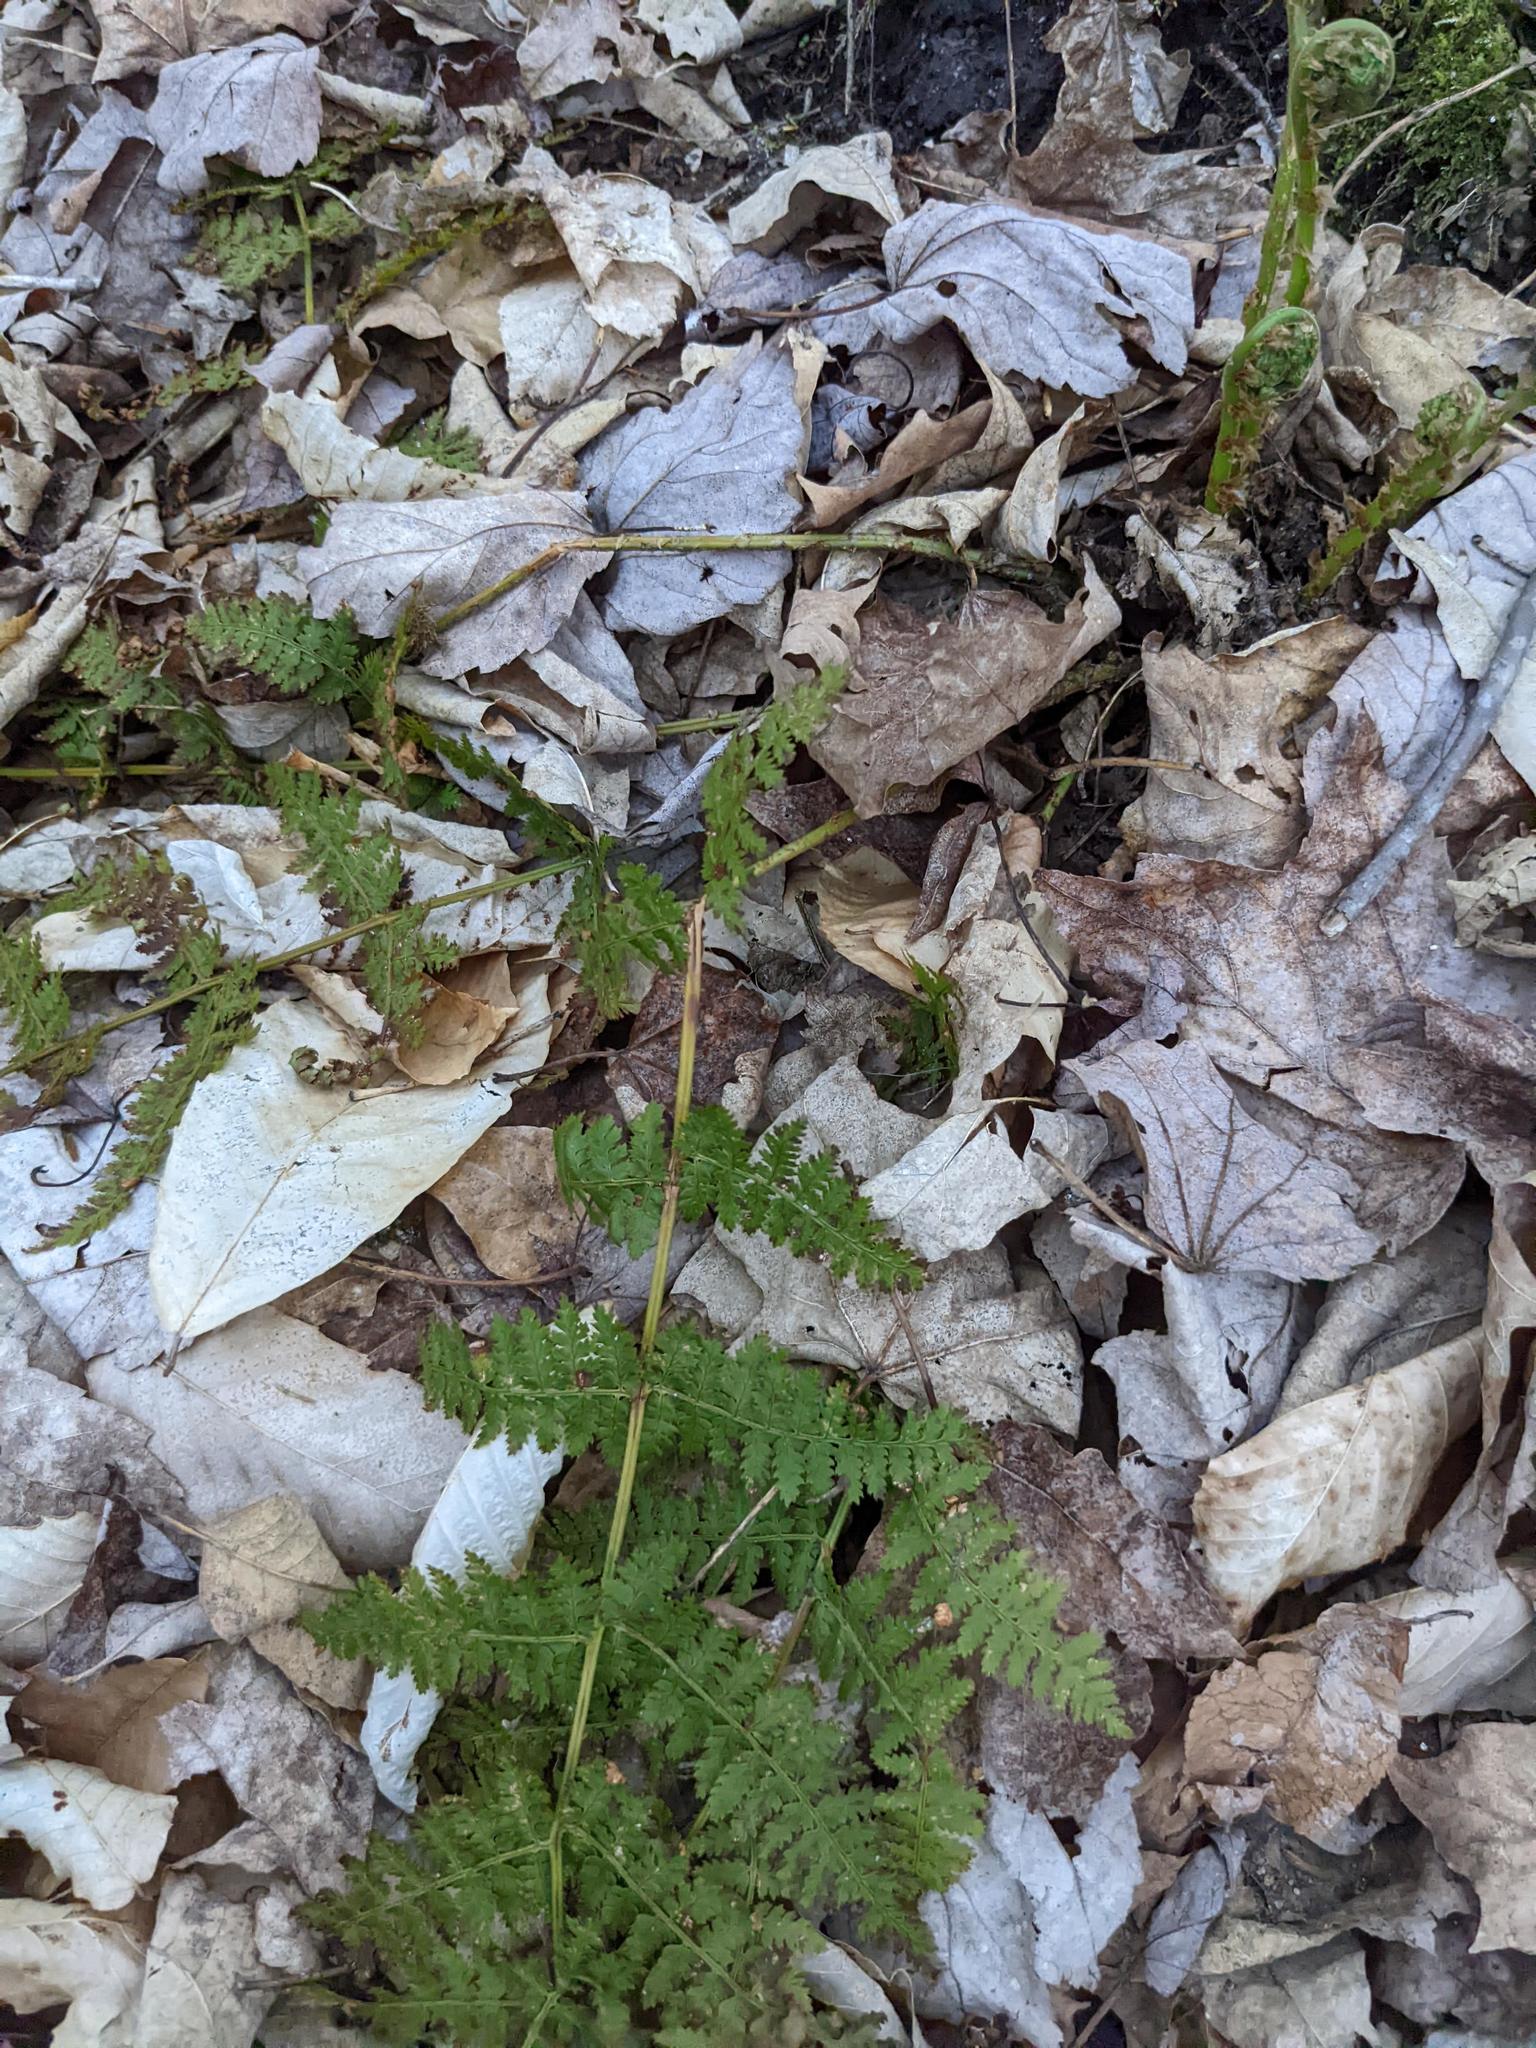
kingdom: Plantae
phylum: Tracheophyta
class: Polypodiopsida
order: Polypodiales
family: Dryopteridaceae
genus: Dryopteris
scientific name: Dryopteris intermedia
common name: Evergreen wood fern
